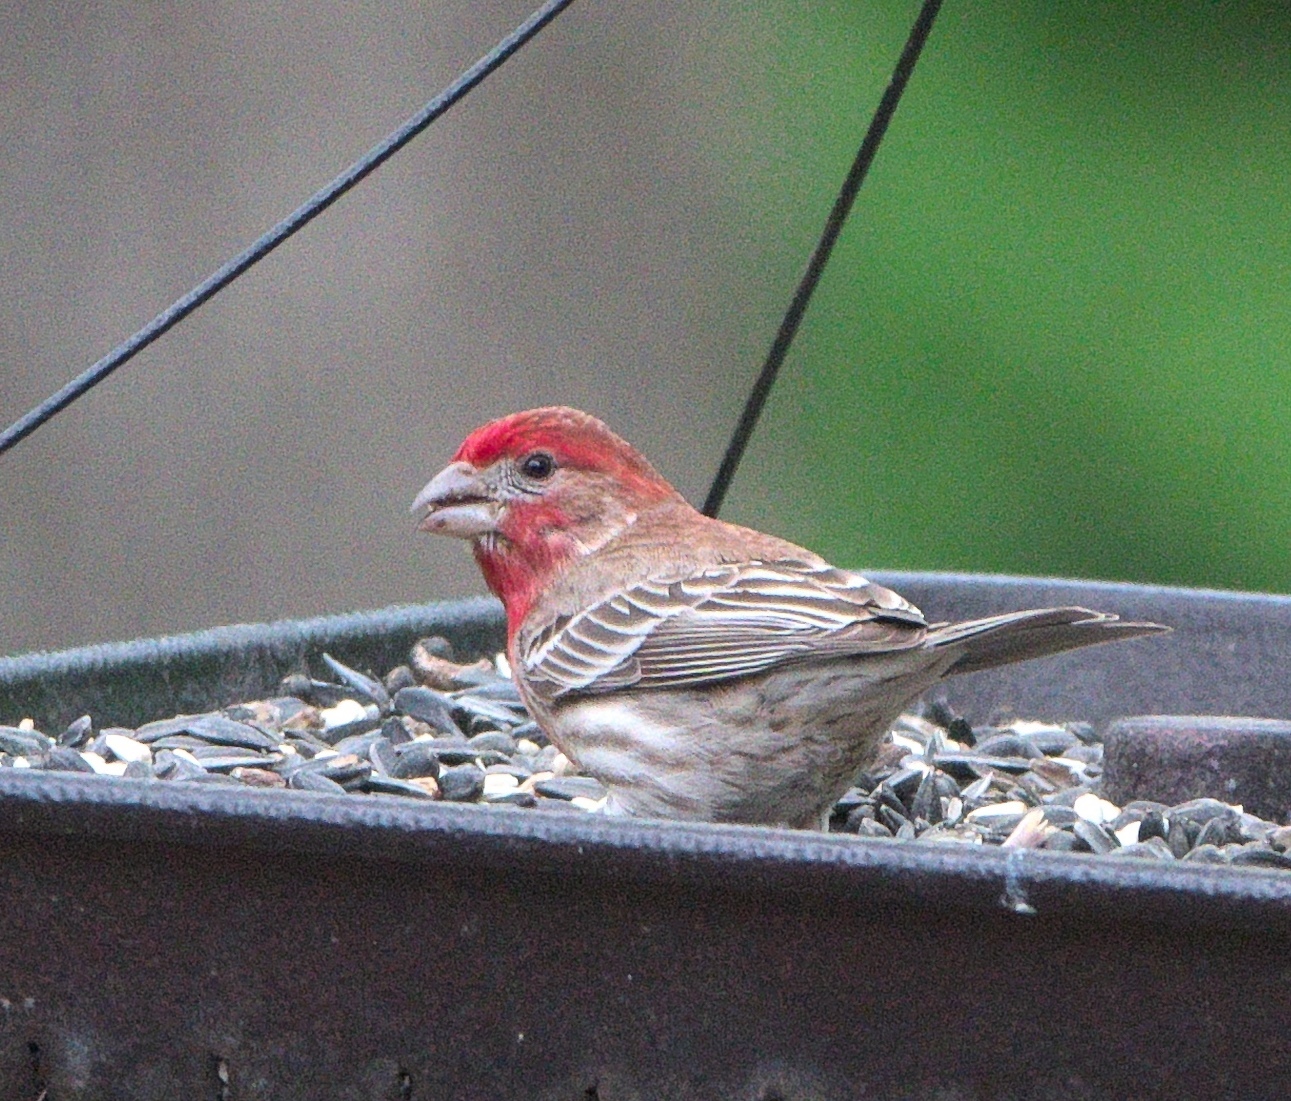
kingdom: Animalia
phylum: Chordata
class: Aves
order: Passeriformes
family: Fringillidae
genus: Haemorhous
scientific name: Haemorhous mexicanus
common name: House finch
